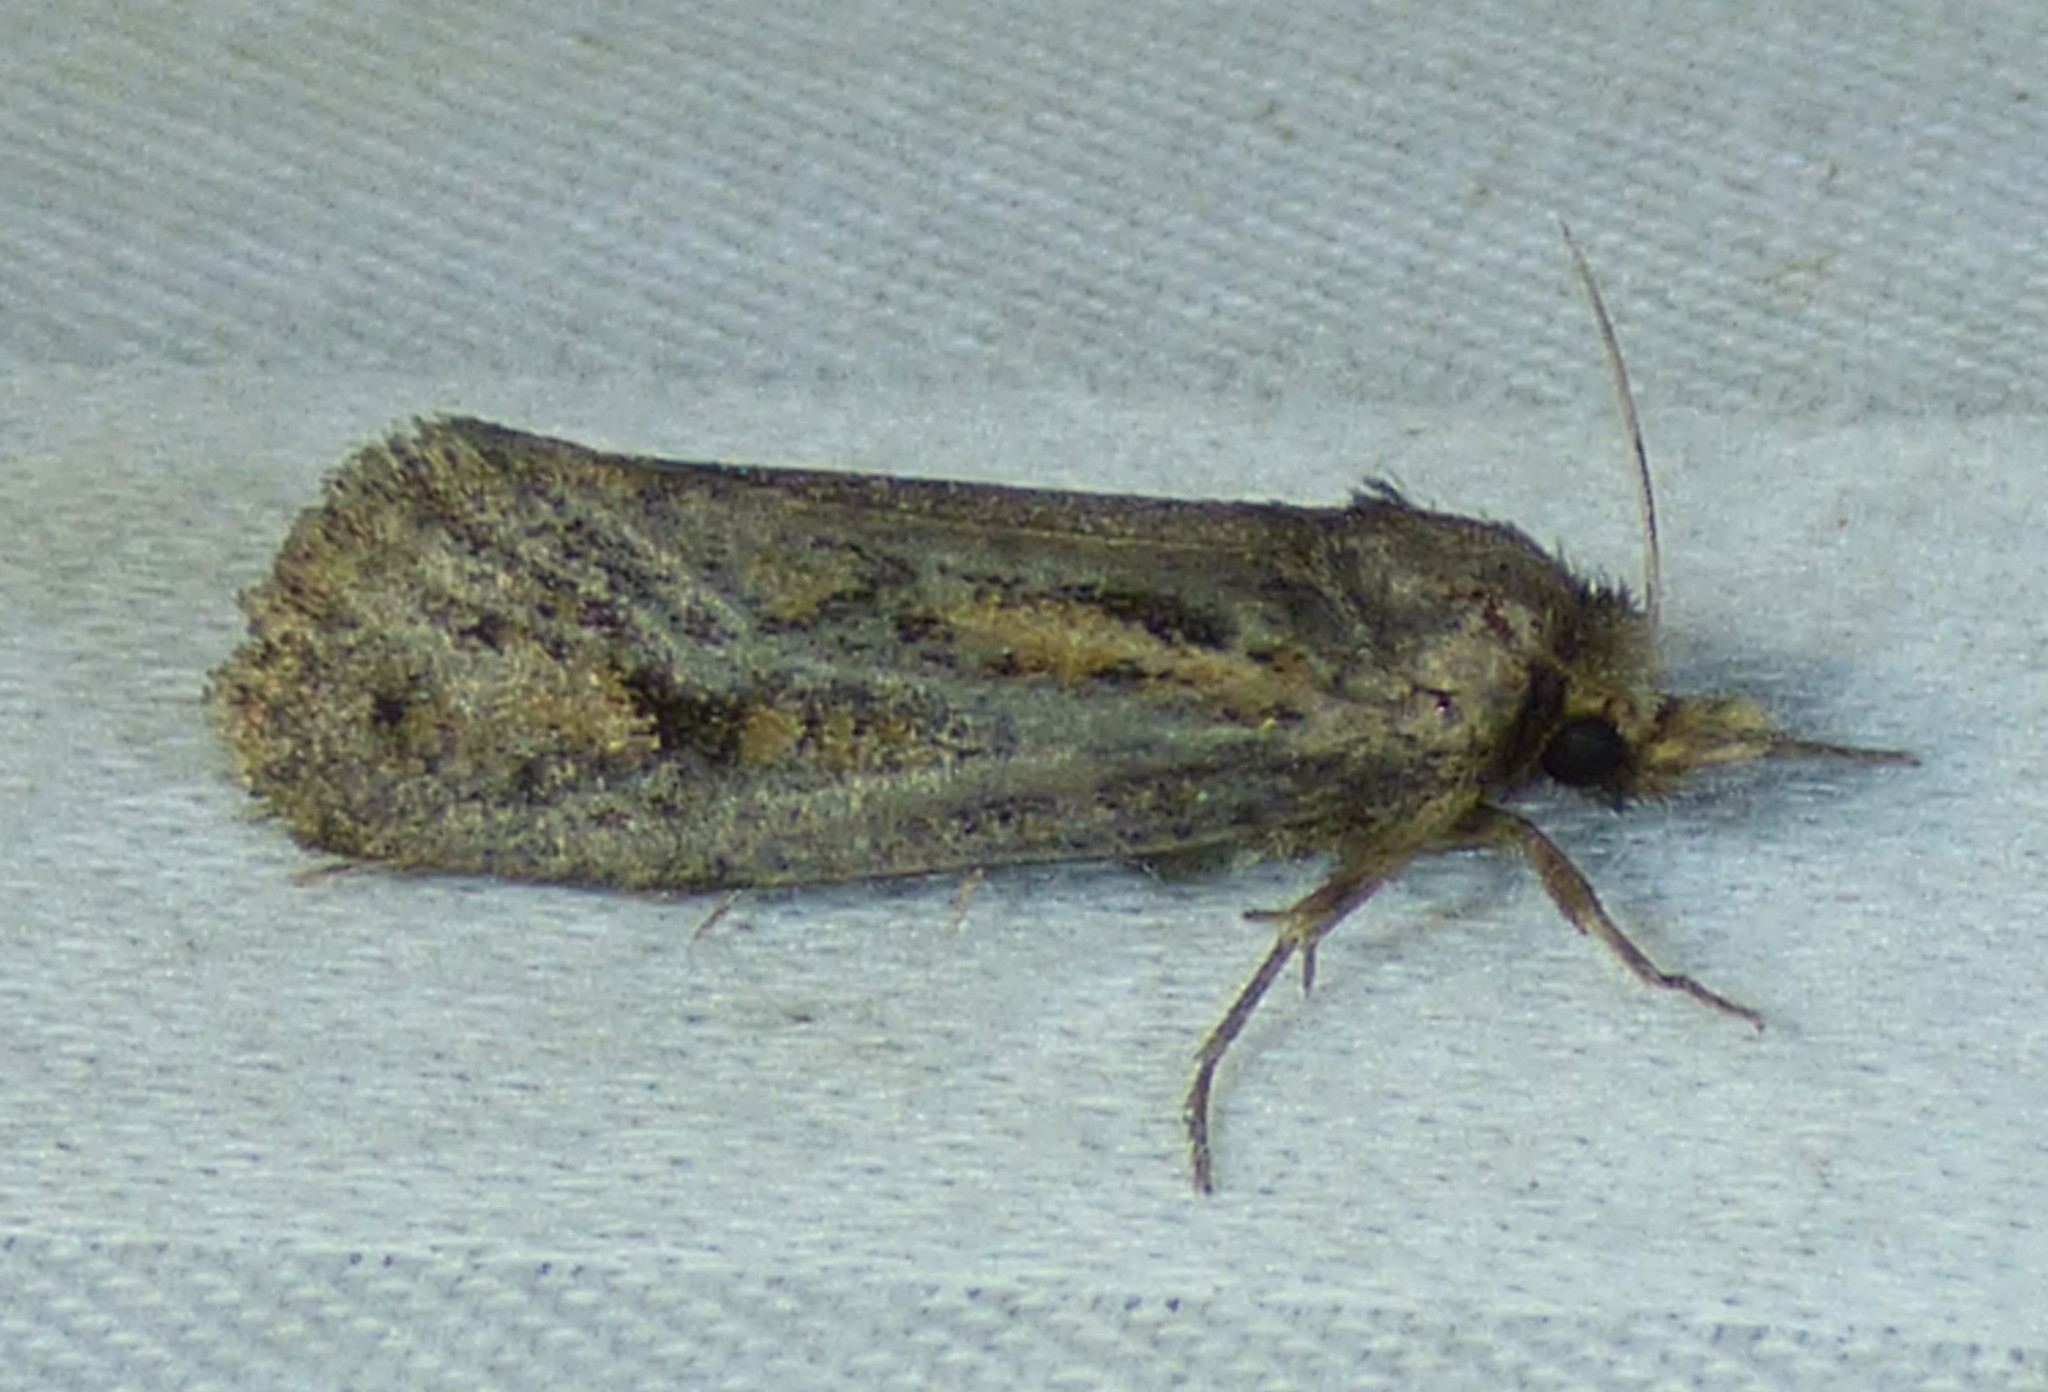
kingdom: Animalia
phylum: Arthropoda
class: Insecta
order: Lepidoptera
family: Tineidae
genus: Acrolophus
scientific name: Acrolophus popeanella
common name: Clemens' grass tubeworm moth
